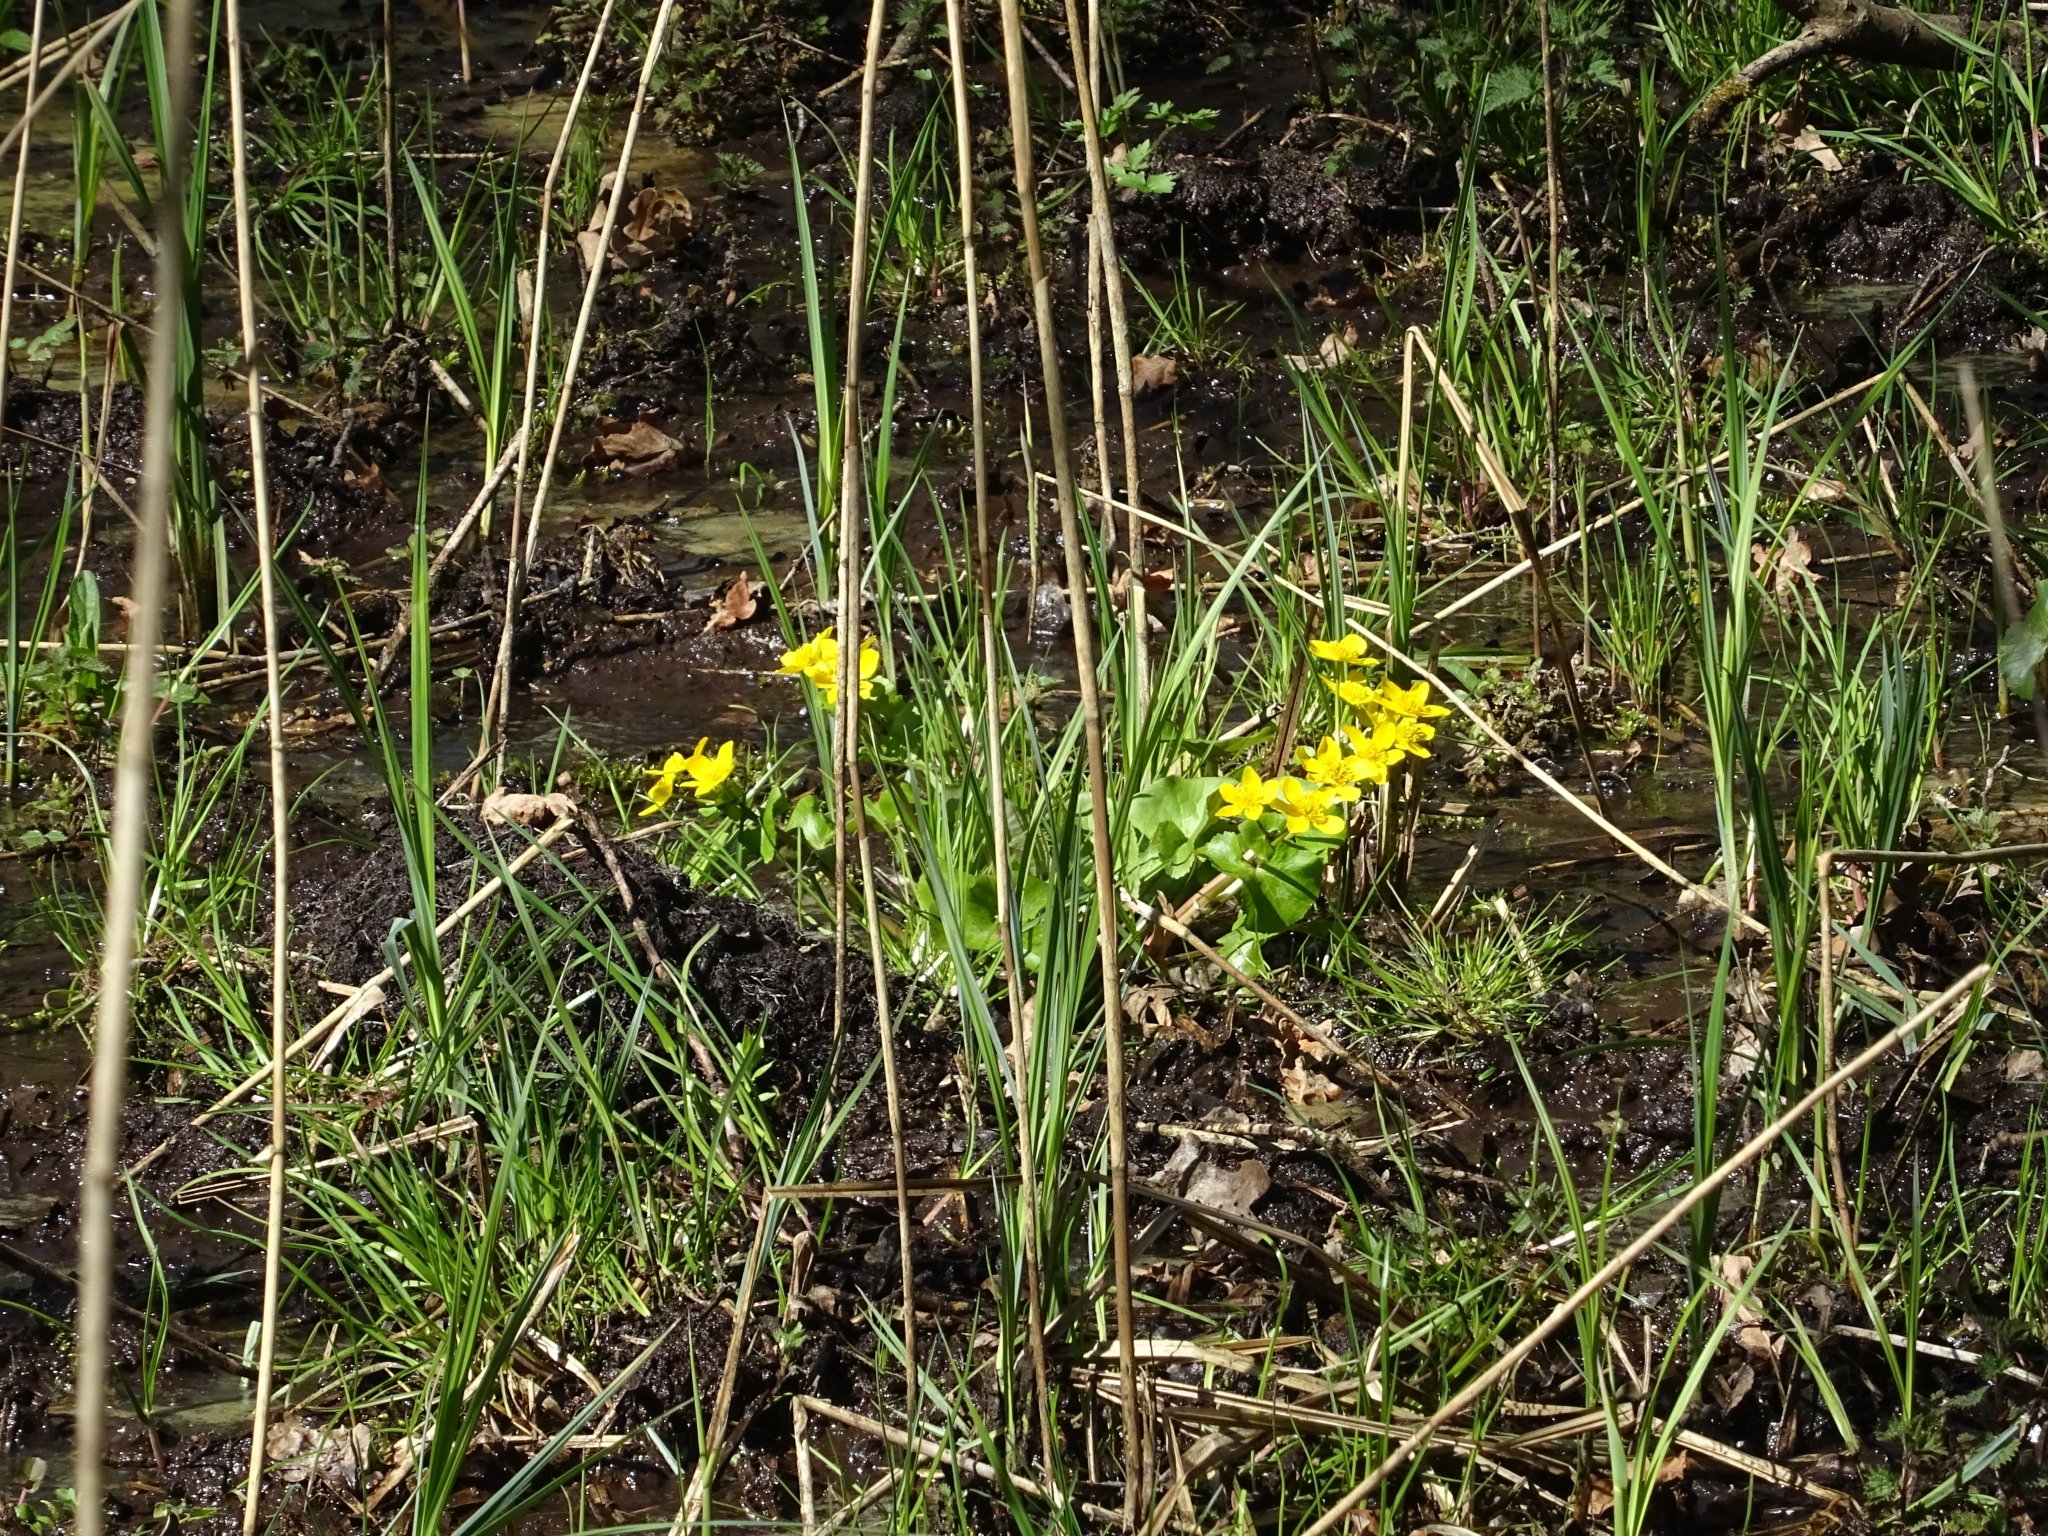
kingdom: Plantae
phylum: Tracheophyta
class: Magnoliopsida
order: Ranunculales
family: Ranunculaceae
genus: Caltha
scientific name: Caltha palustris
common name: Marsh marigold
